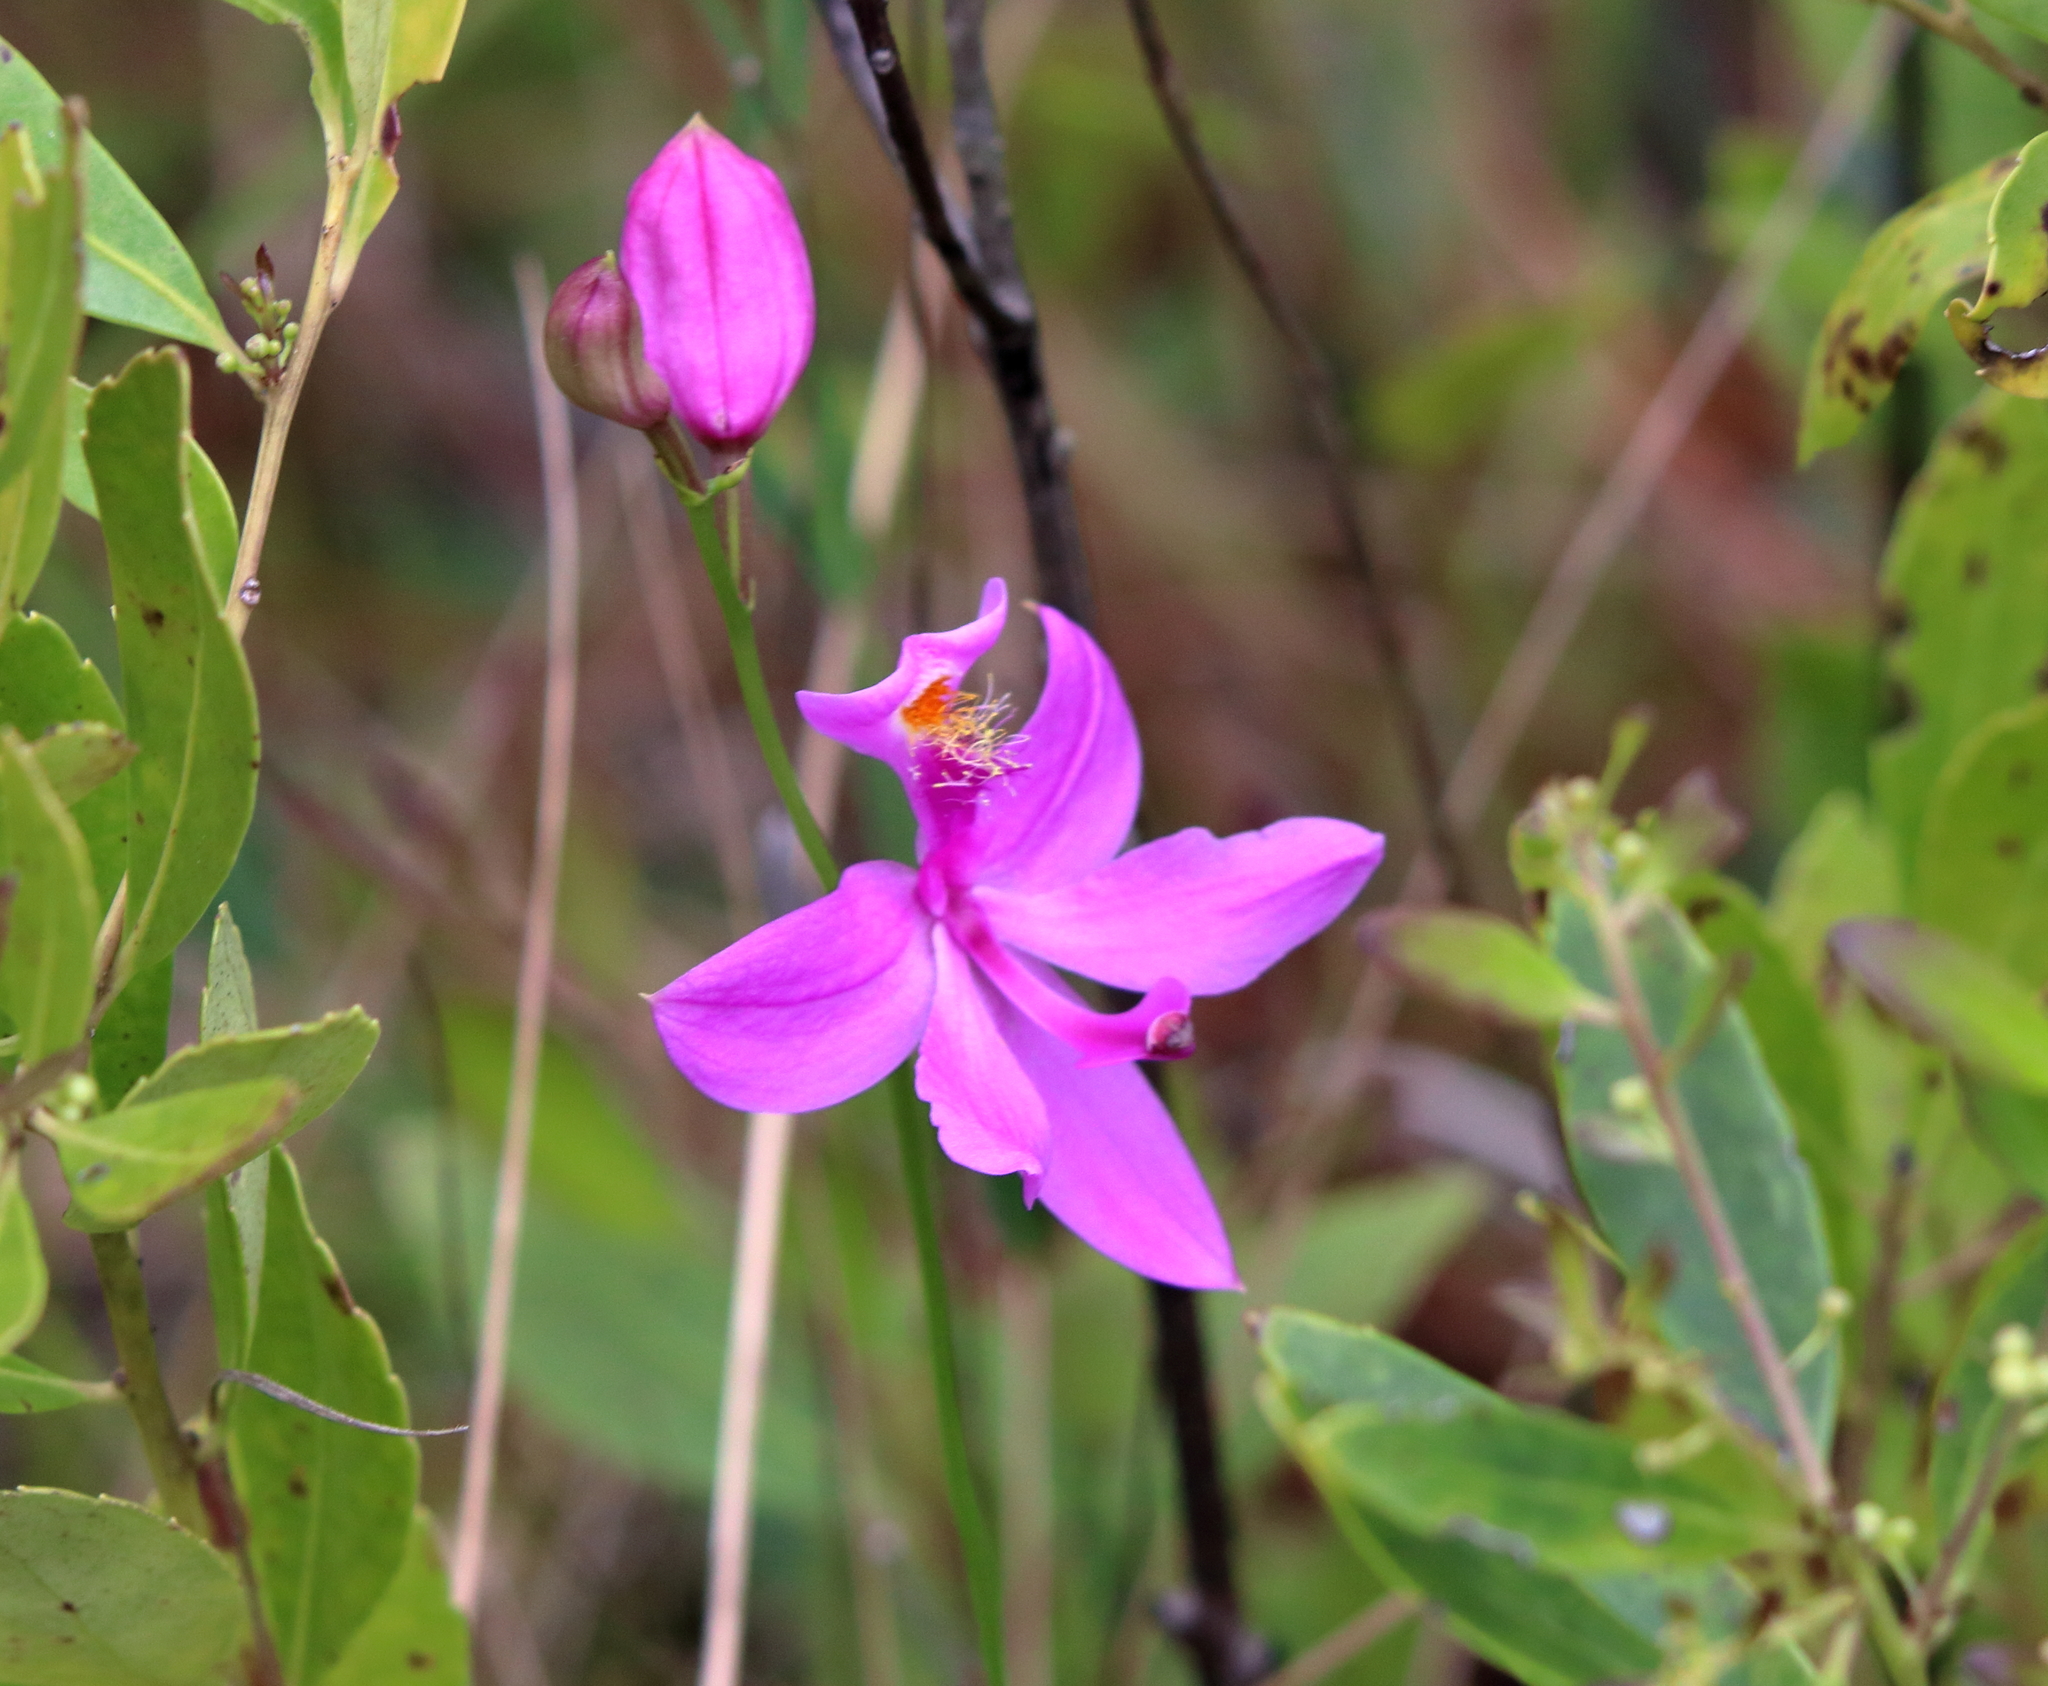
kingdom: Plantae
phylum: Tracheophyta
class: Liliopsida
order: Asparagales
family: Orchidaceae
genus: Calopogon
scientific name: Calopogon tuberosus
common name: Grass-pink
